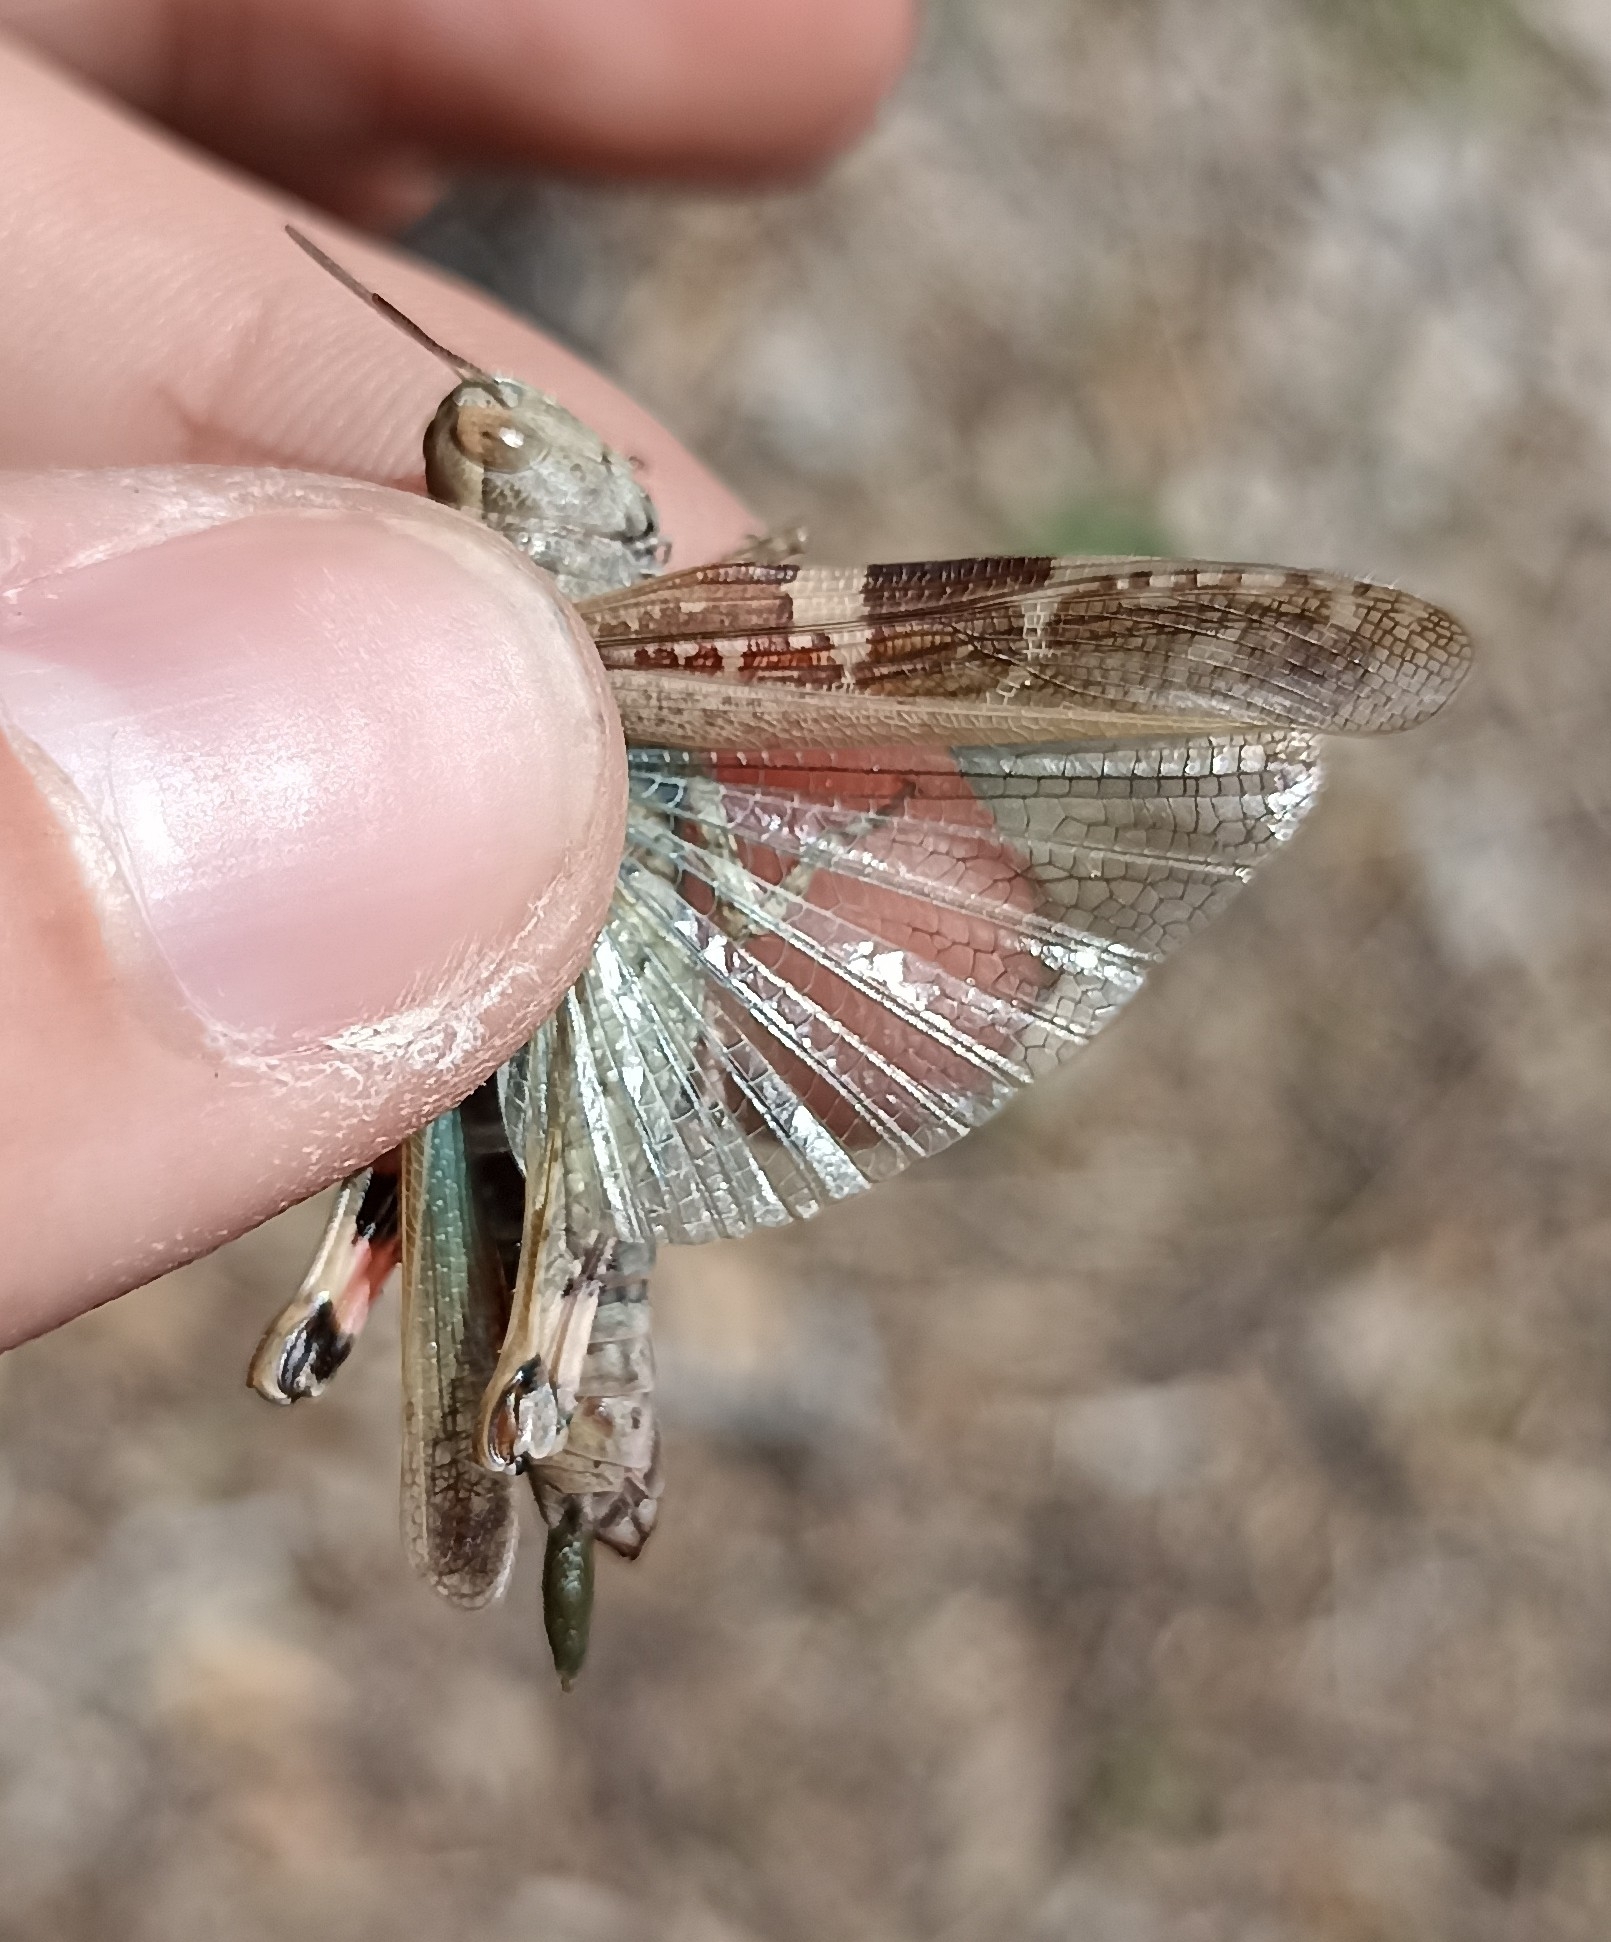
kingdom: Animalia
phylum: Arthropoda
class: Insecta
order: Orthoptera
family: Acrididae
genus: Aiolopus
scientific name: Aiolopus strepens
